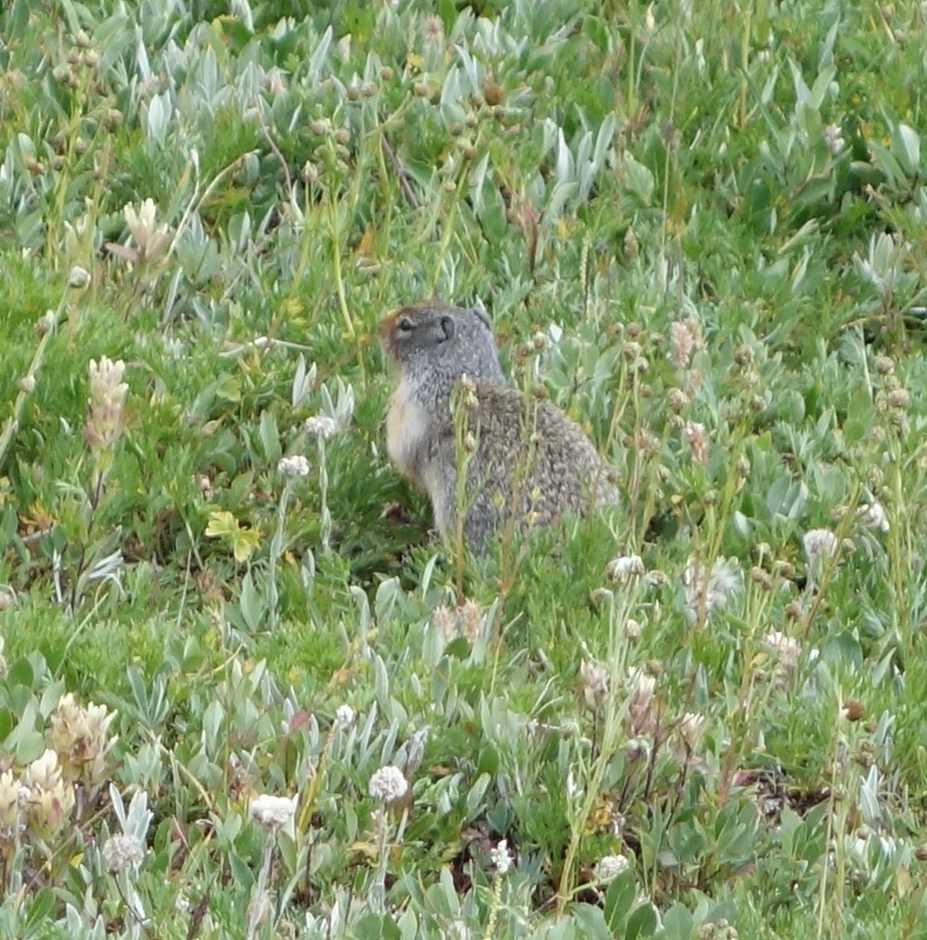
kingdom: Animalia
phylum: Chordata
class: Mammalia
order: Rodentia
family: Sciuridae
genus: Urocitellus
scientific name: Urocitellus columbianus
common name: Columbian ground squirrel
